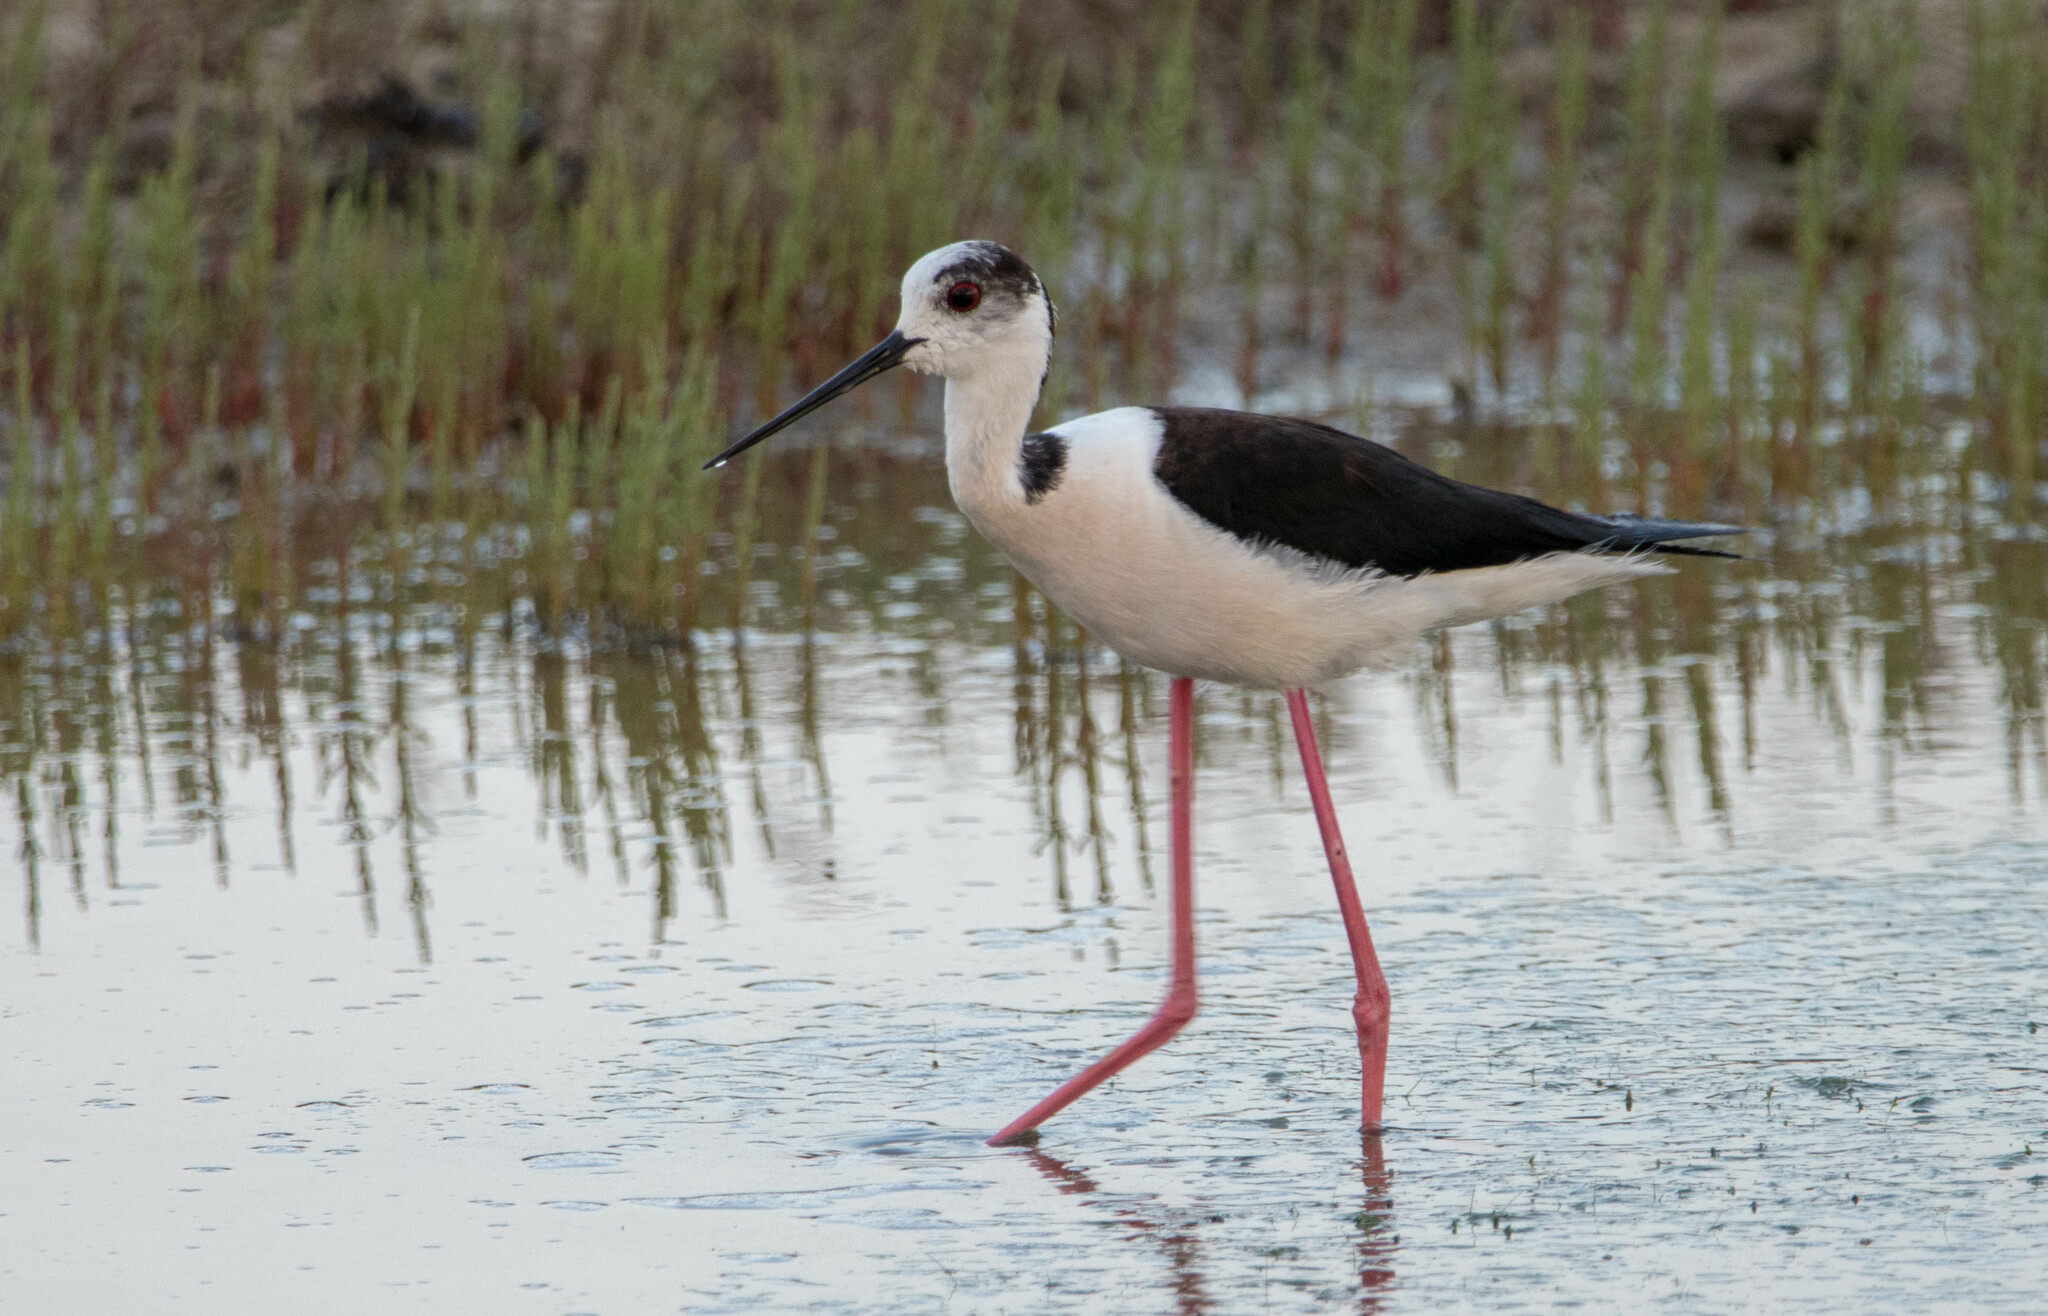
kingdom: Animalia
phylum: Chordata
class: Aves
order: Charadriiformes
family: Recurvirostridae
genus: Himantopus
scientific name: Himantopus himantopus
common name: Black-winged stilt
